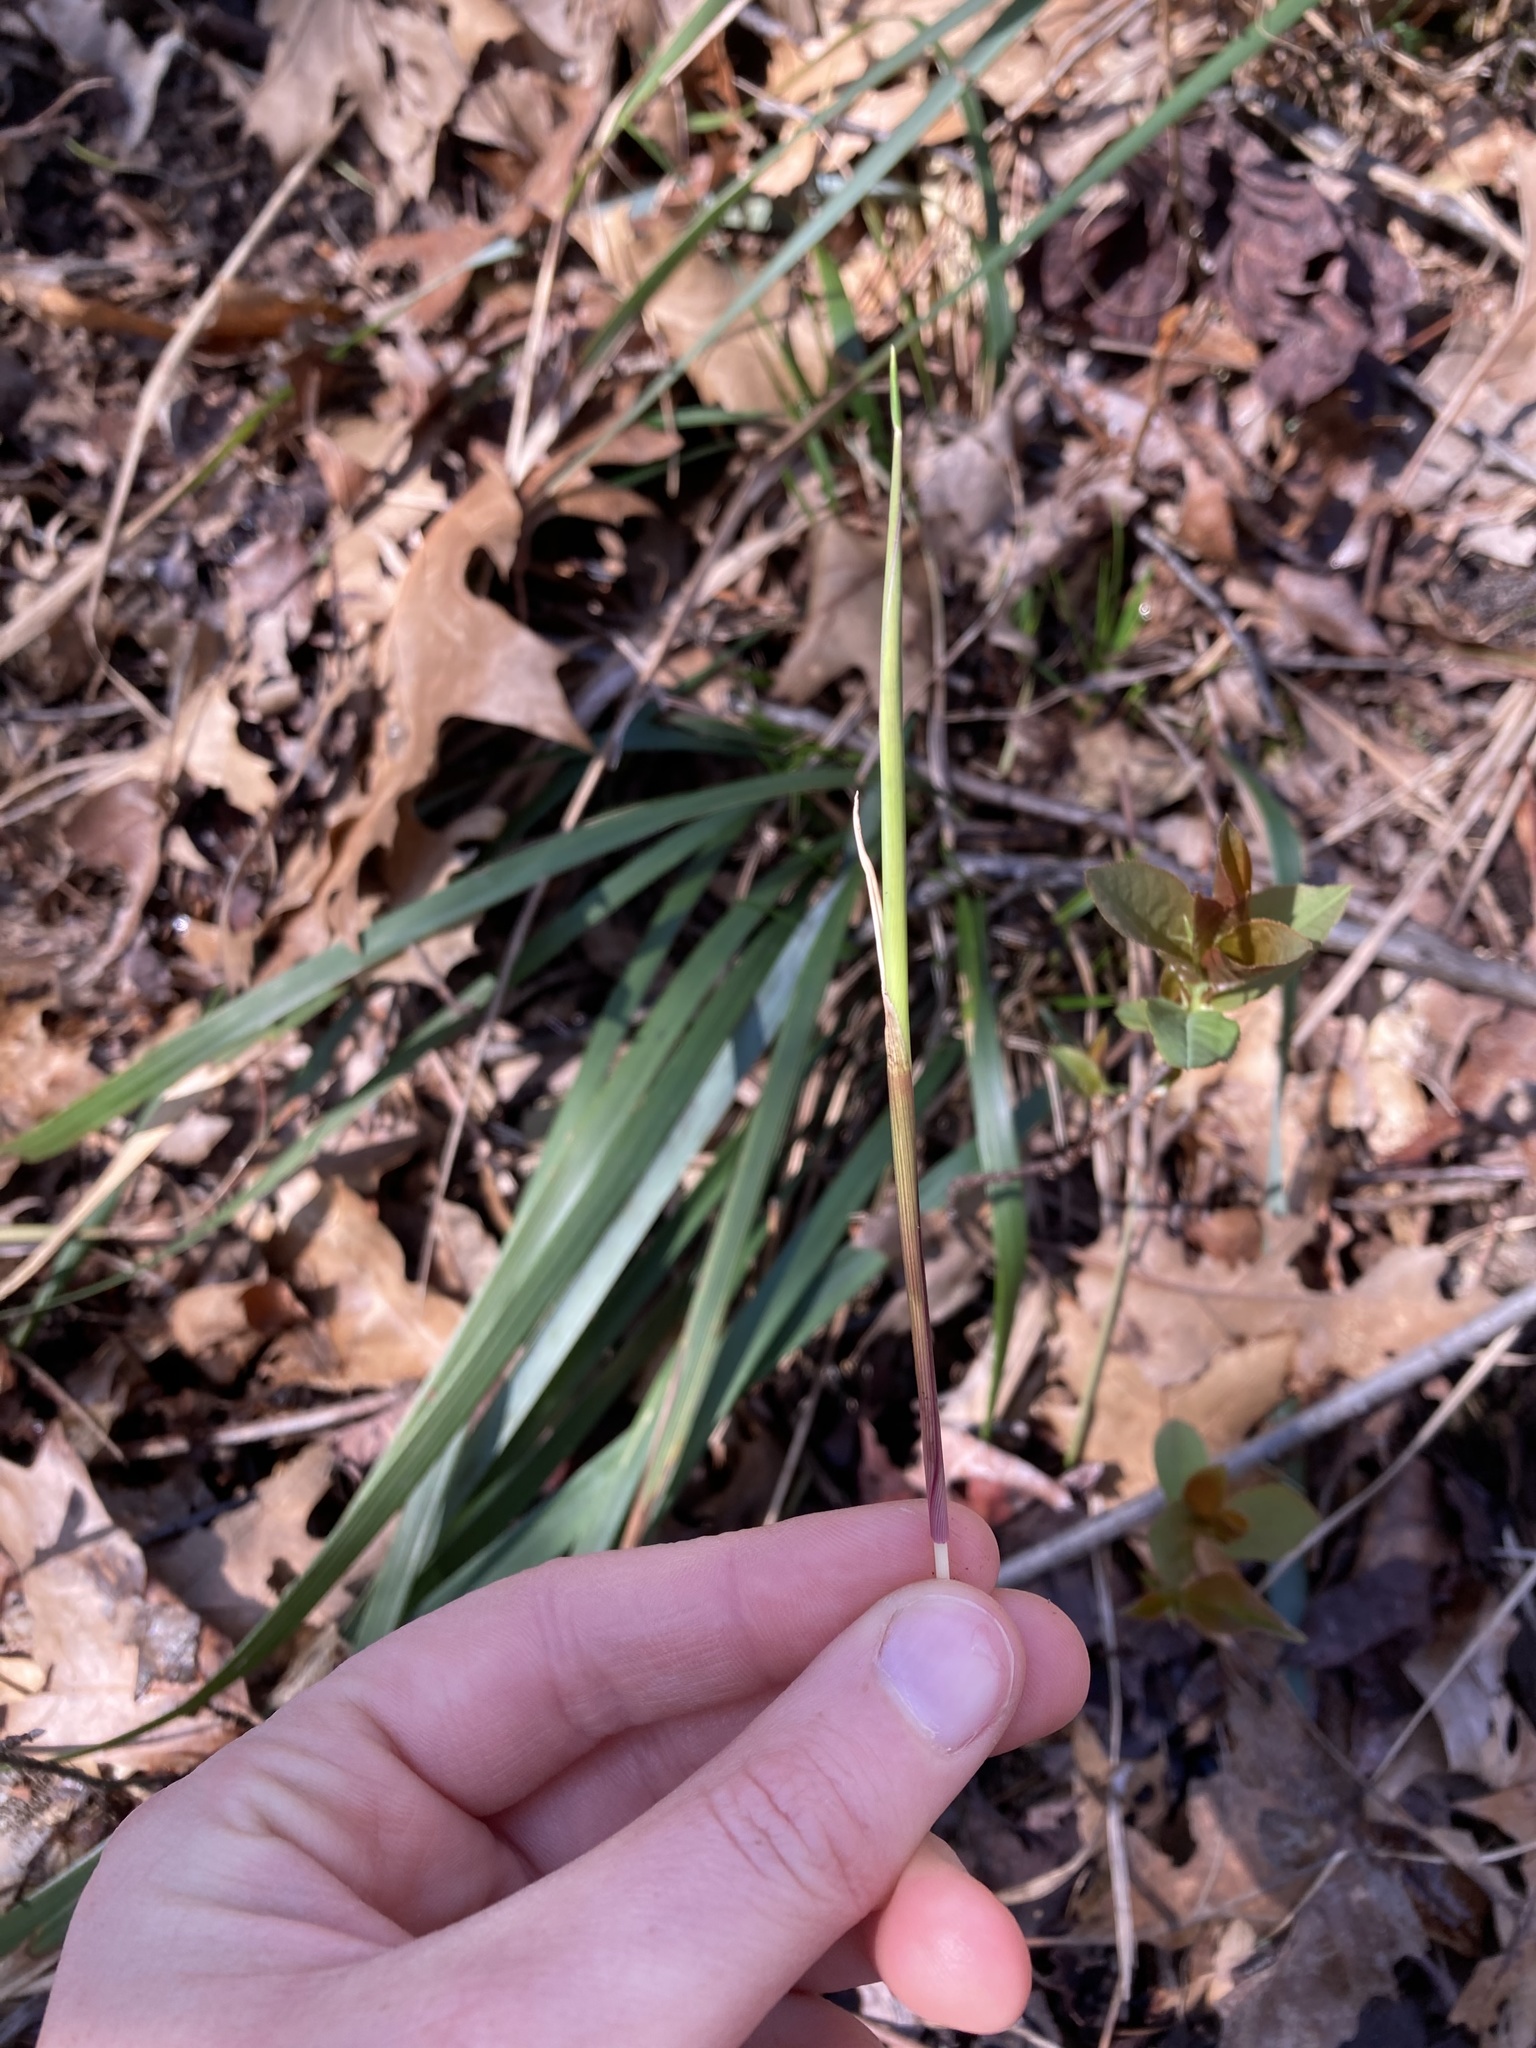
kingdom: Plantae
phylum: Tracheophyta
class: Liliopsida
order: Poales
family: Poaceae
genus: Oryzopsis
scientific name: Oryzopsis asperifolia
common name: Rough-leaved mountain rice
